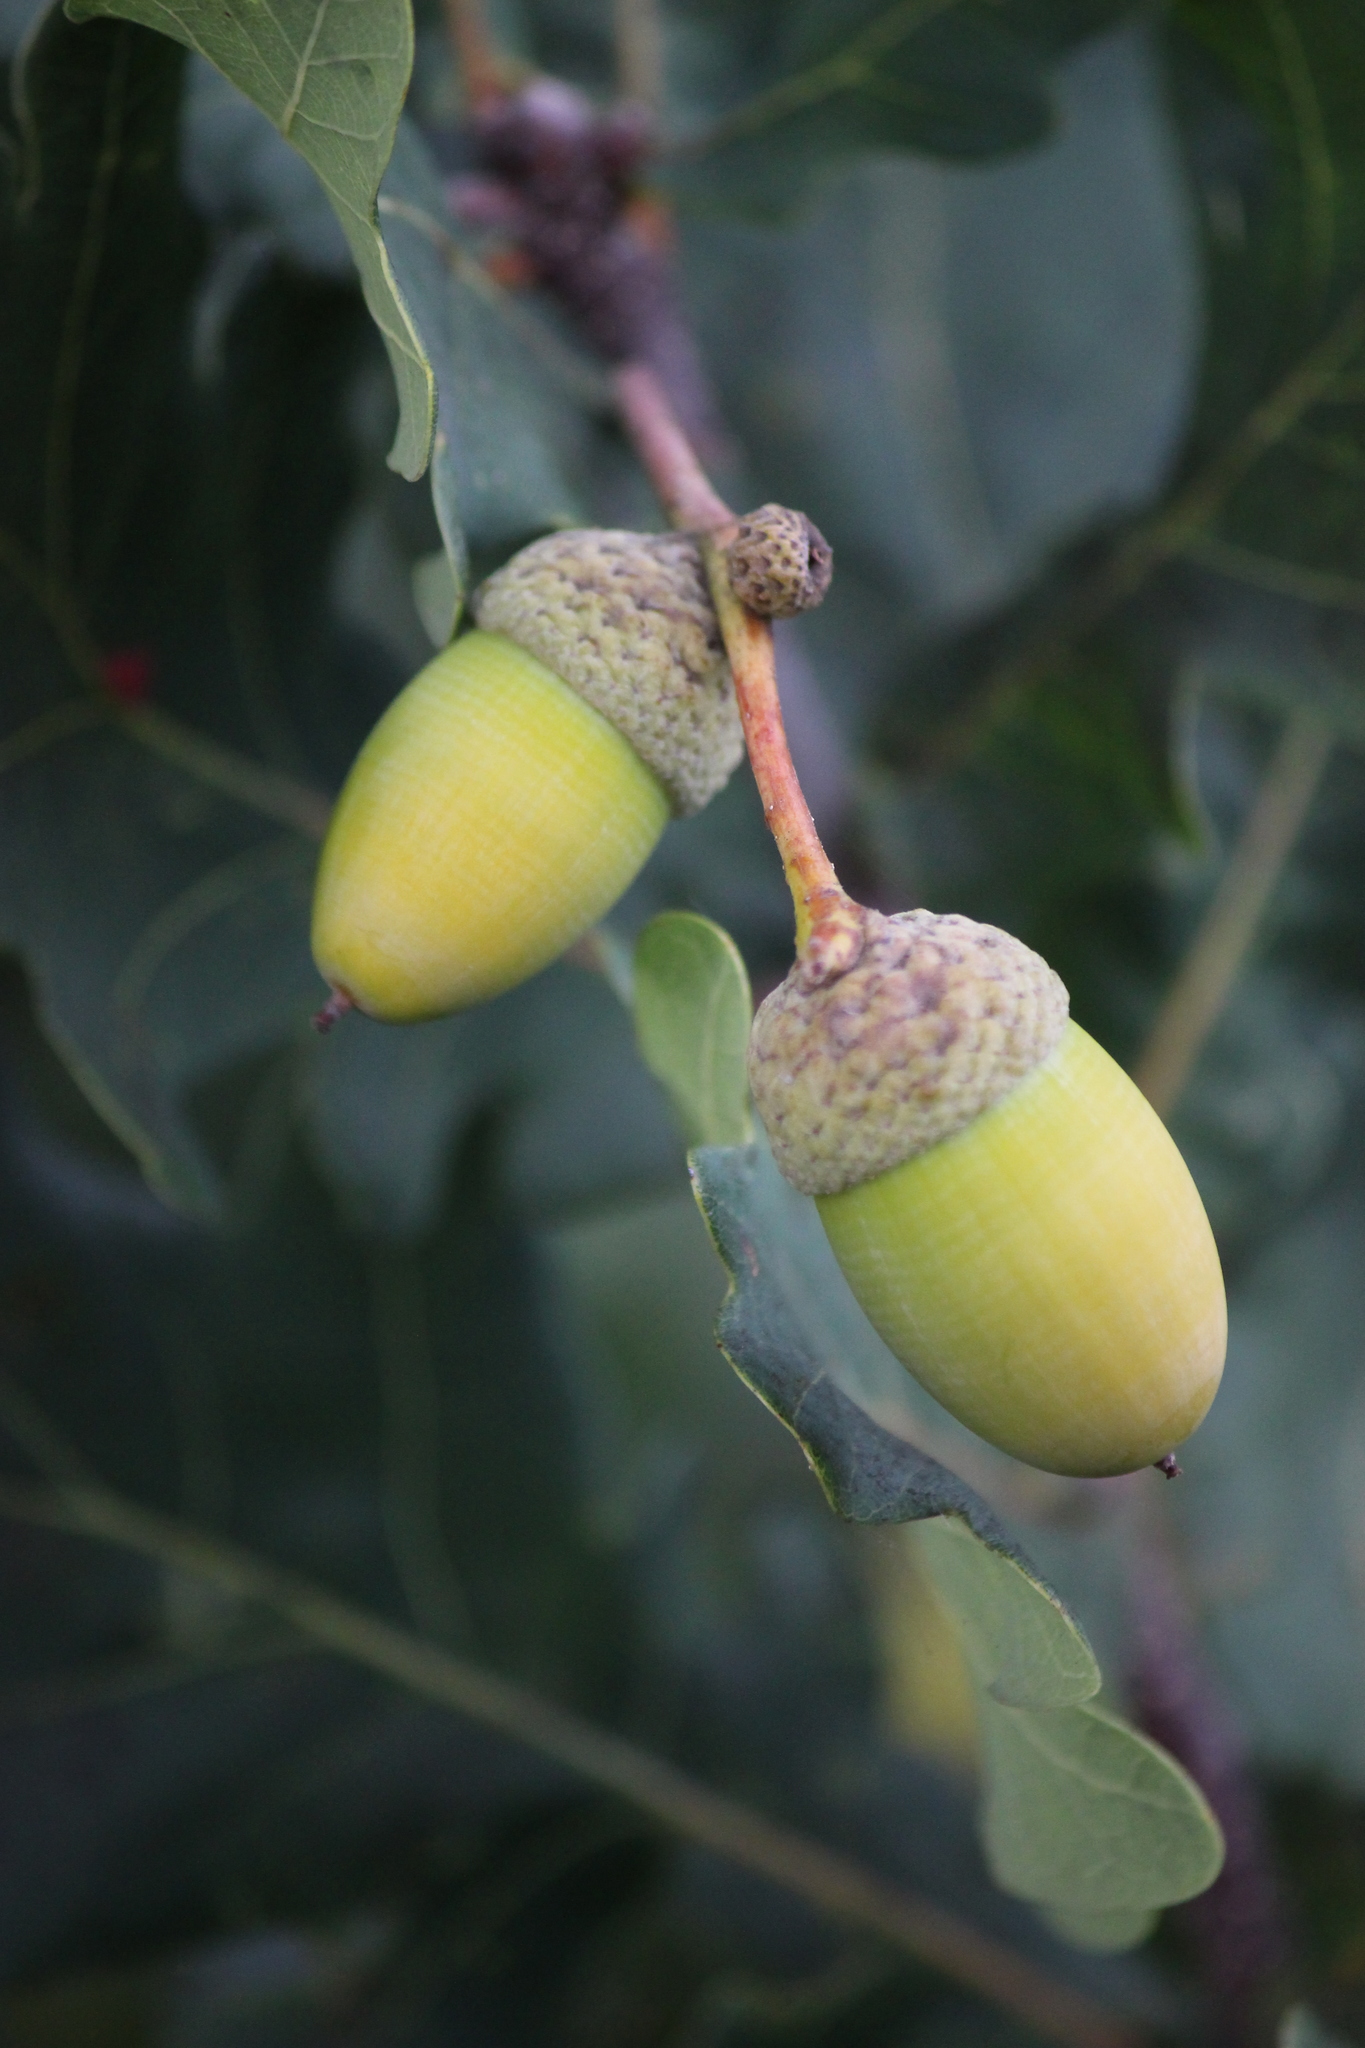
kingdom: Plantae
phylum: Tracheophyta
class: Magnoliopsida
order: Fagales
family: Fagaceae
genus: Quercus
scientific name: Quercus robur
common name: Pedunculate oak
